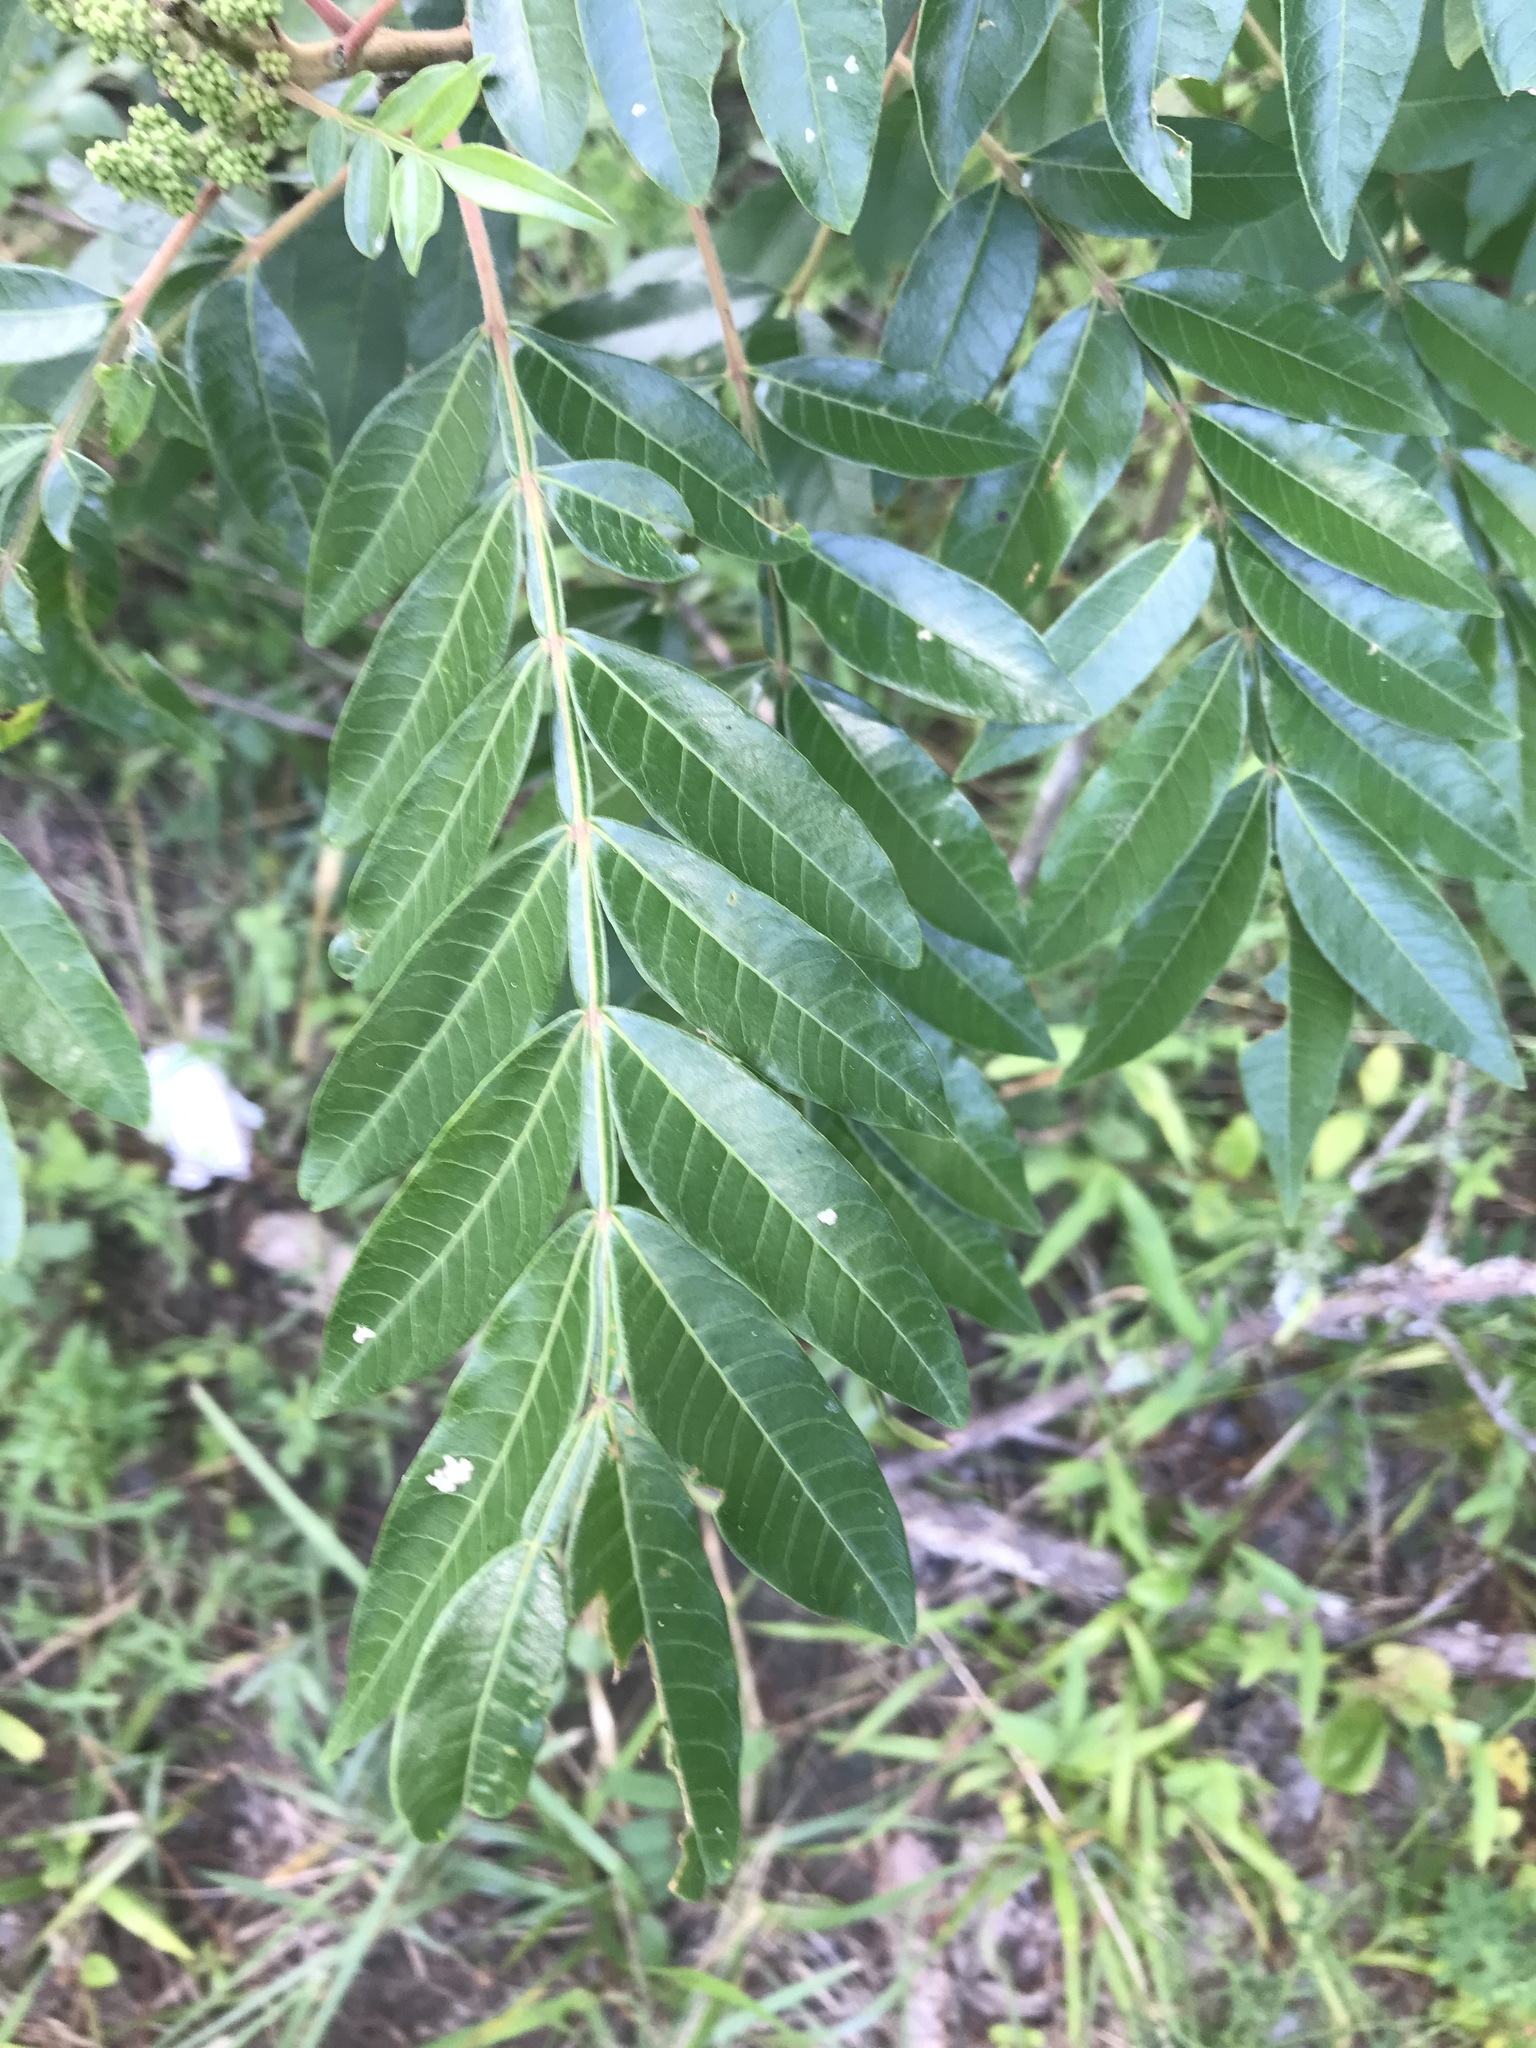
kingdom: Plantae
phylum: Tracheophyta
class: Magnoliopsida
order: Sapindales
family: Anacardiaceae
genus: Rhus
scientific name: Rhus copallina
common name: Shining sumac
